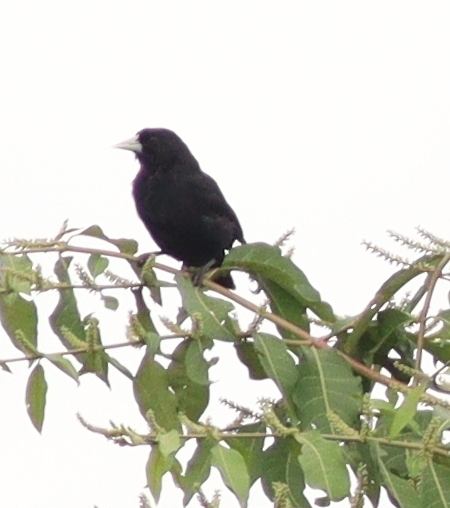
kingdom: Animalia
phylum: Chordata
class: Aves
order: Passeriformes
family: Icteridae
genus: Cacicus
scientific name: Cacicus solitarius
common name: Solitary cacique
